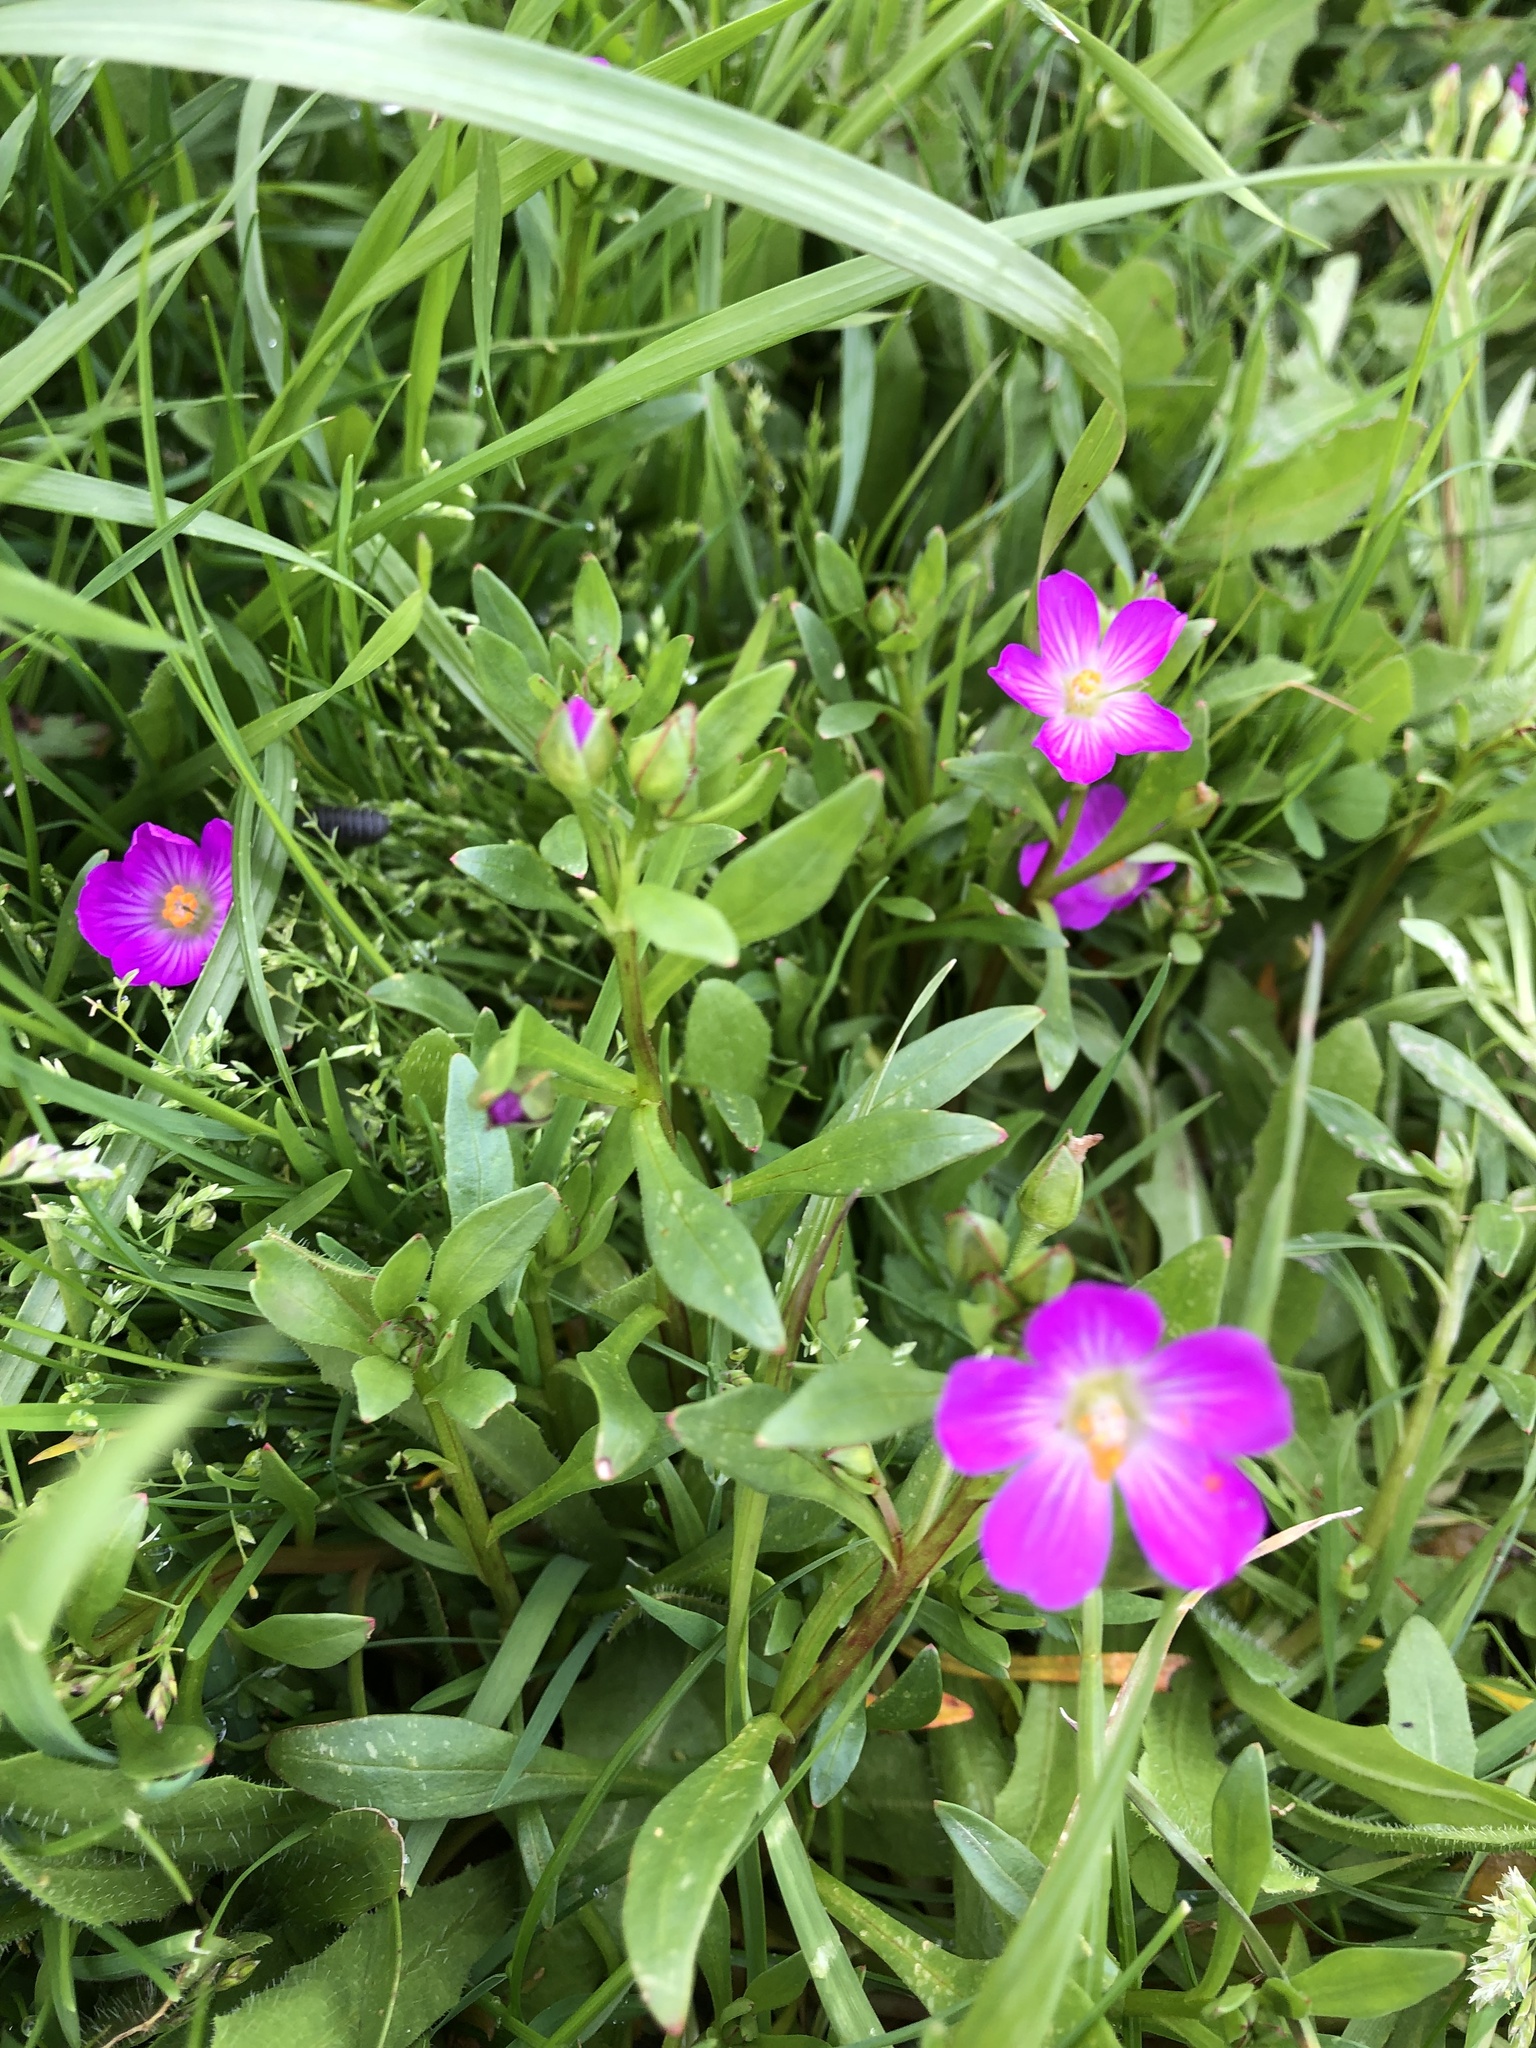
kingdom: Plantae
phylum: Tracheophyta
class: Magnoliopsida
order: Caryophyllales
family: Montiaceae
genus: Calandrinia
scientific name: Calandrinia menziesii
